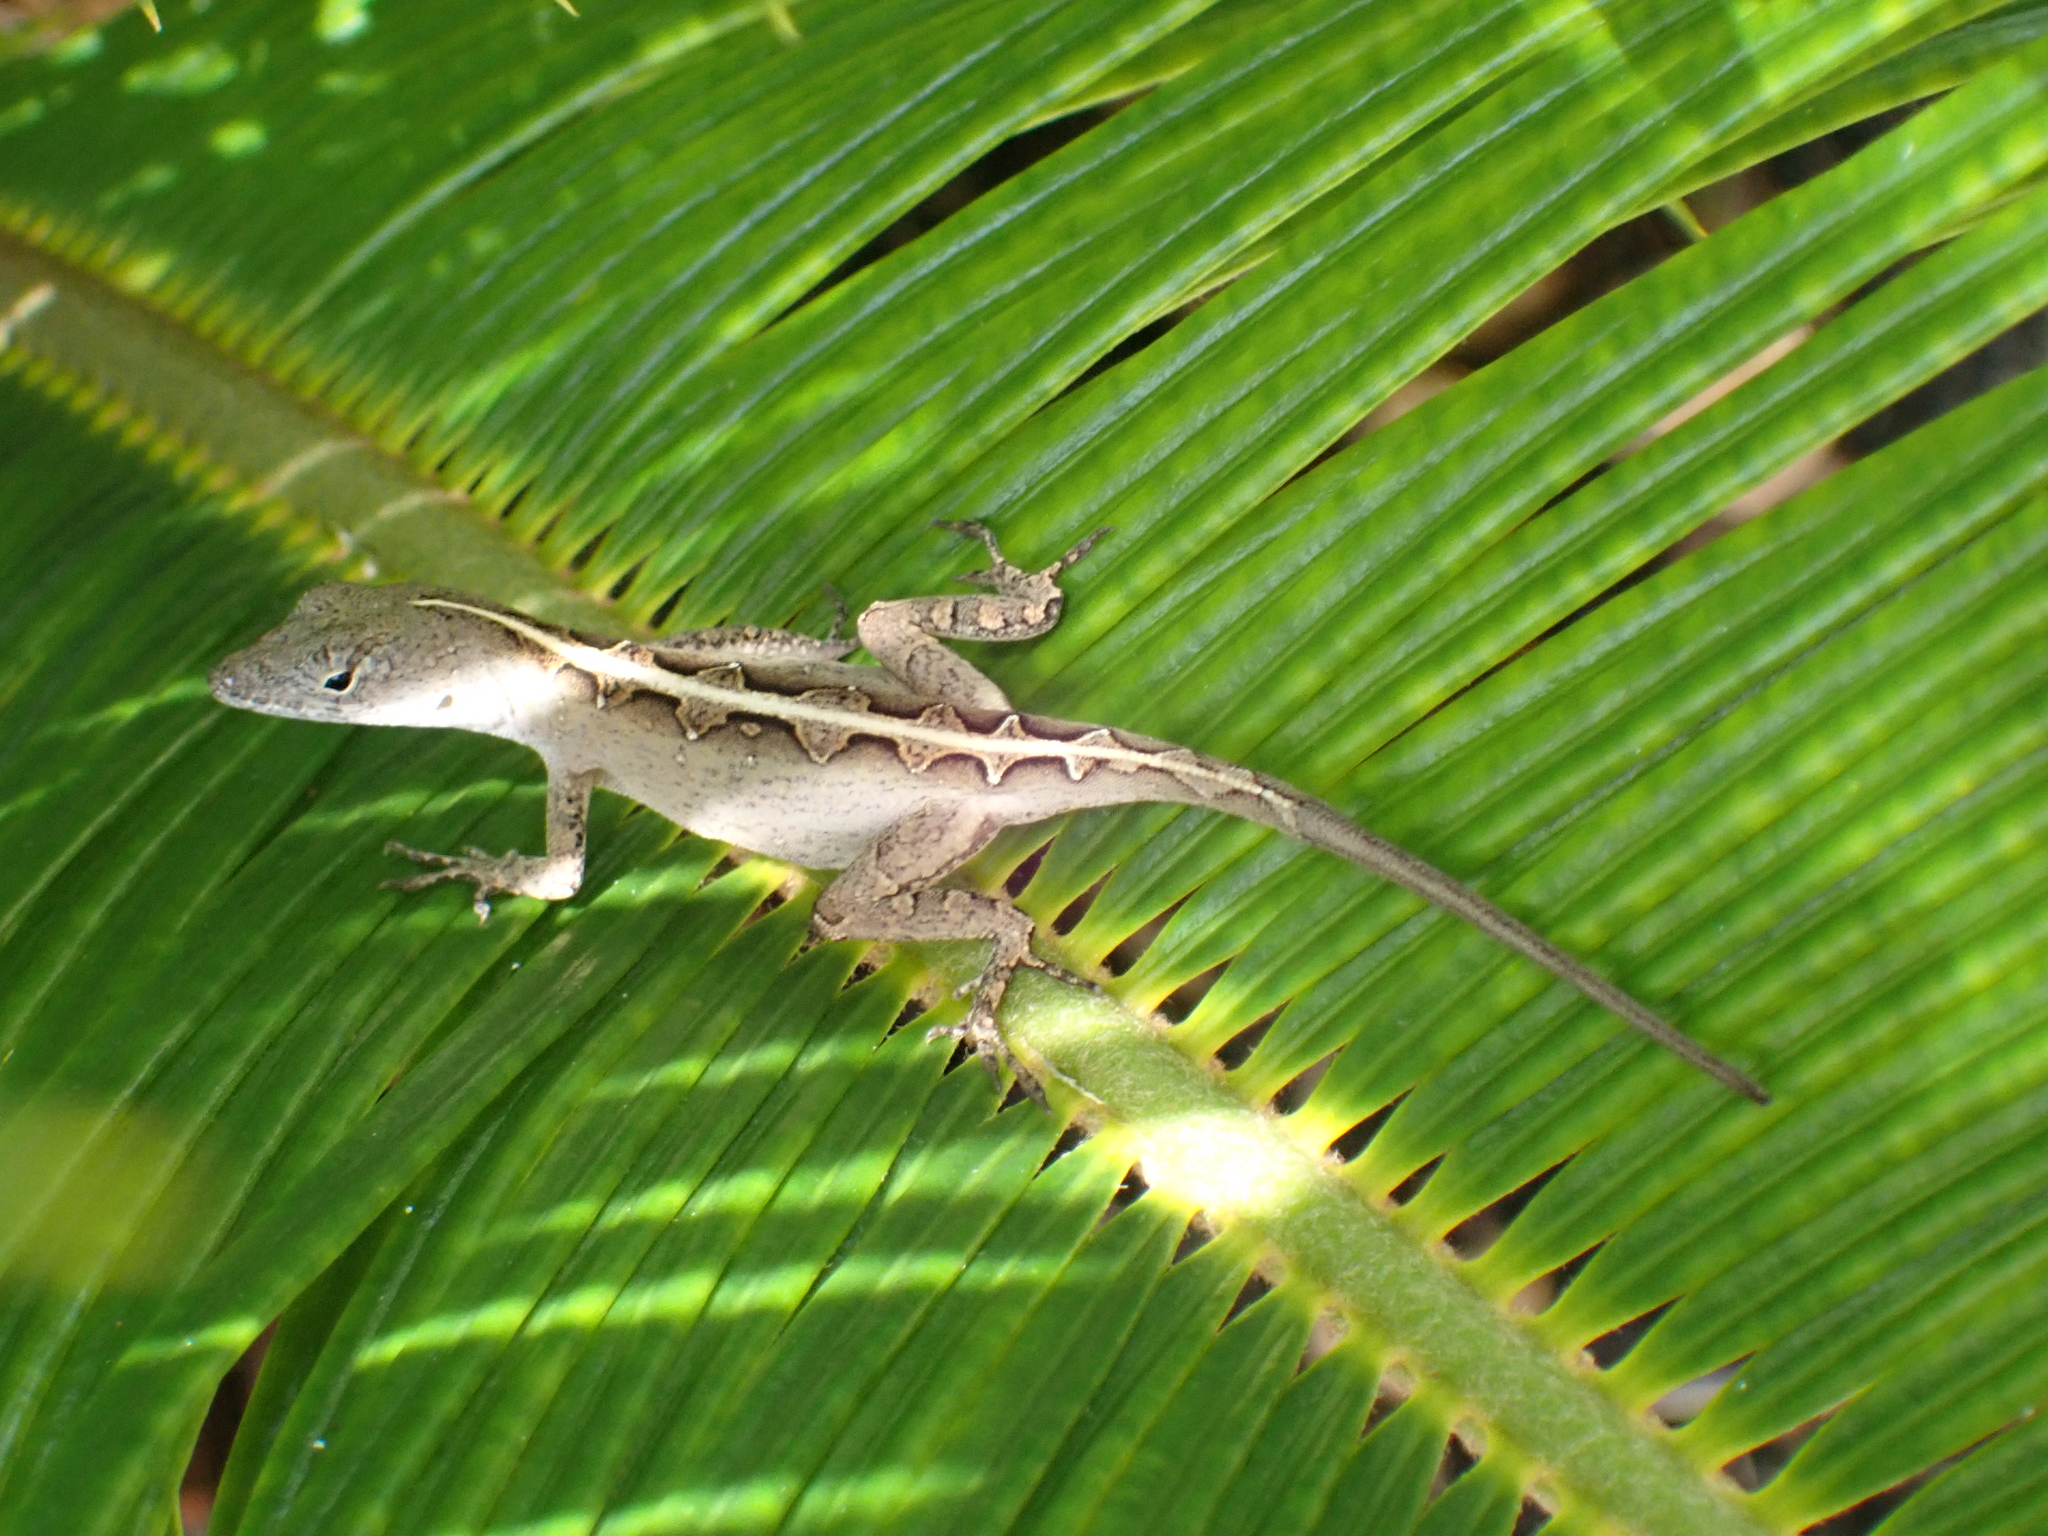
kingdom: Animalia
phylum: Chordata
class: Squamata
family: Dactyloidae
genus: Anolis
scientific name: Anolis sagrei
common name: Brown anole
